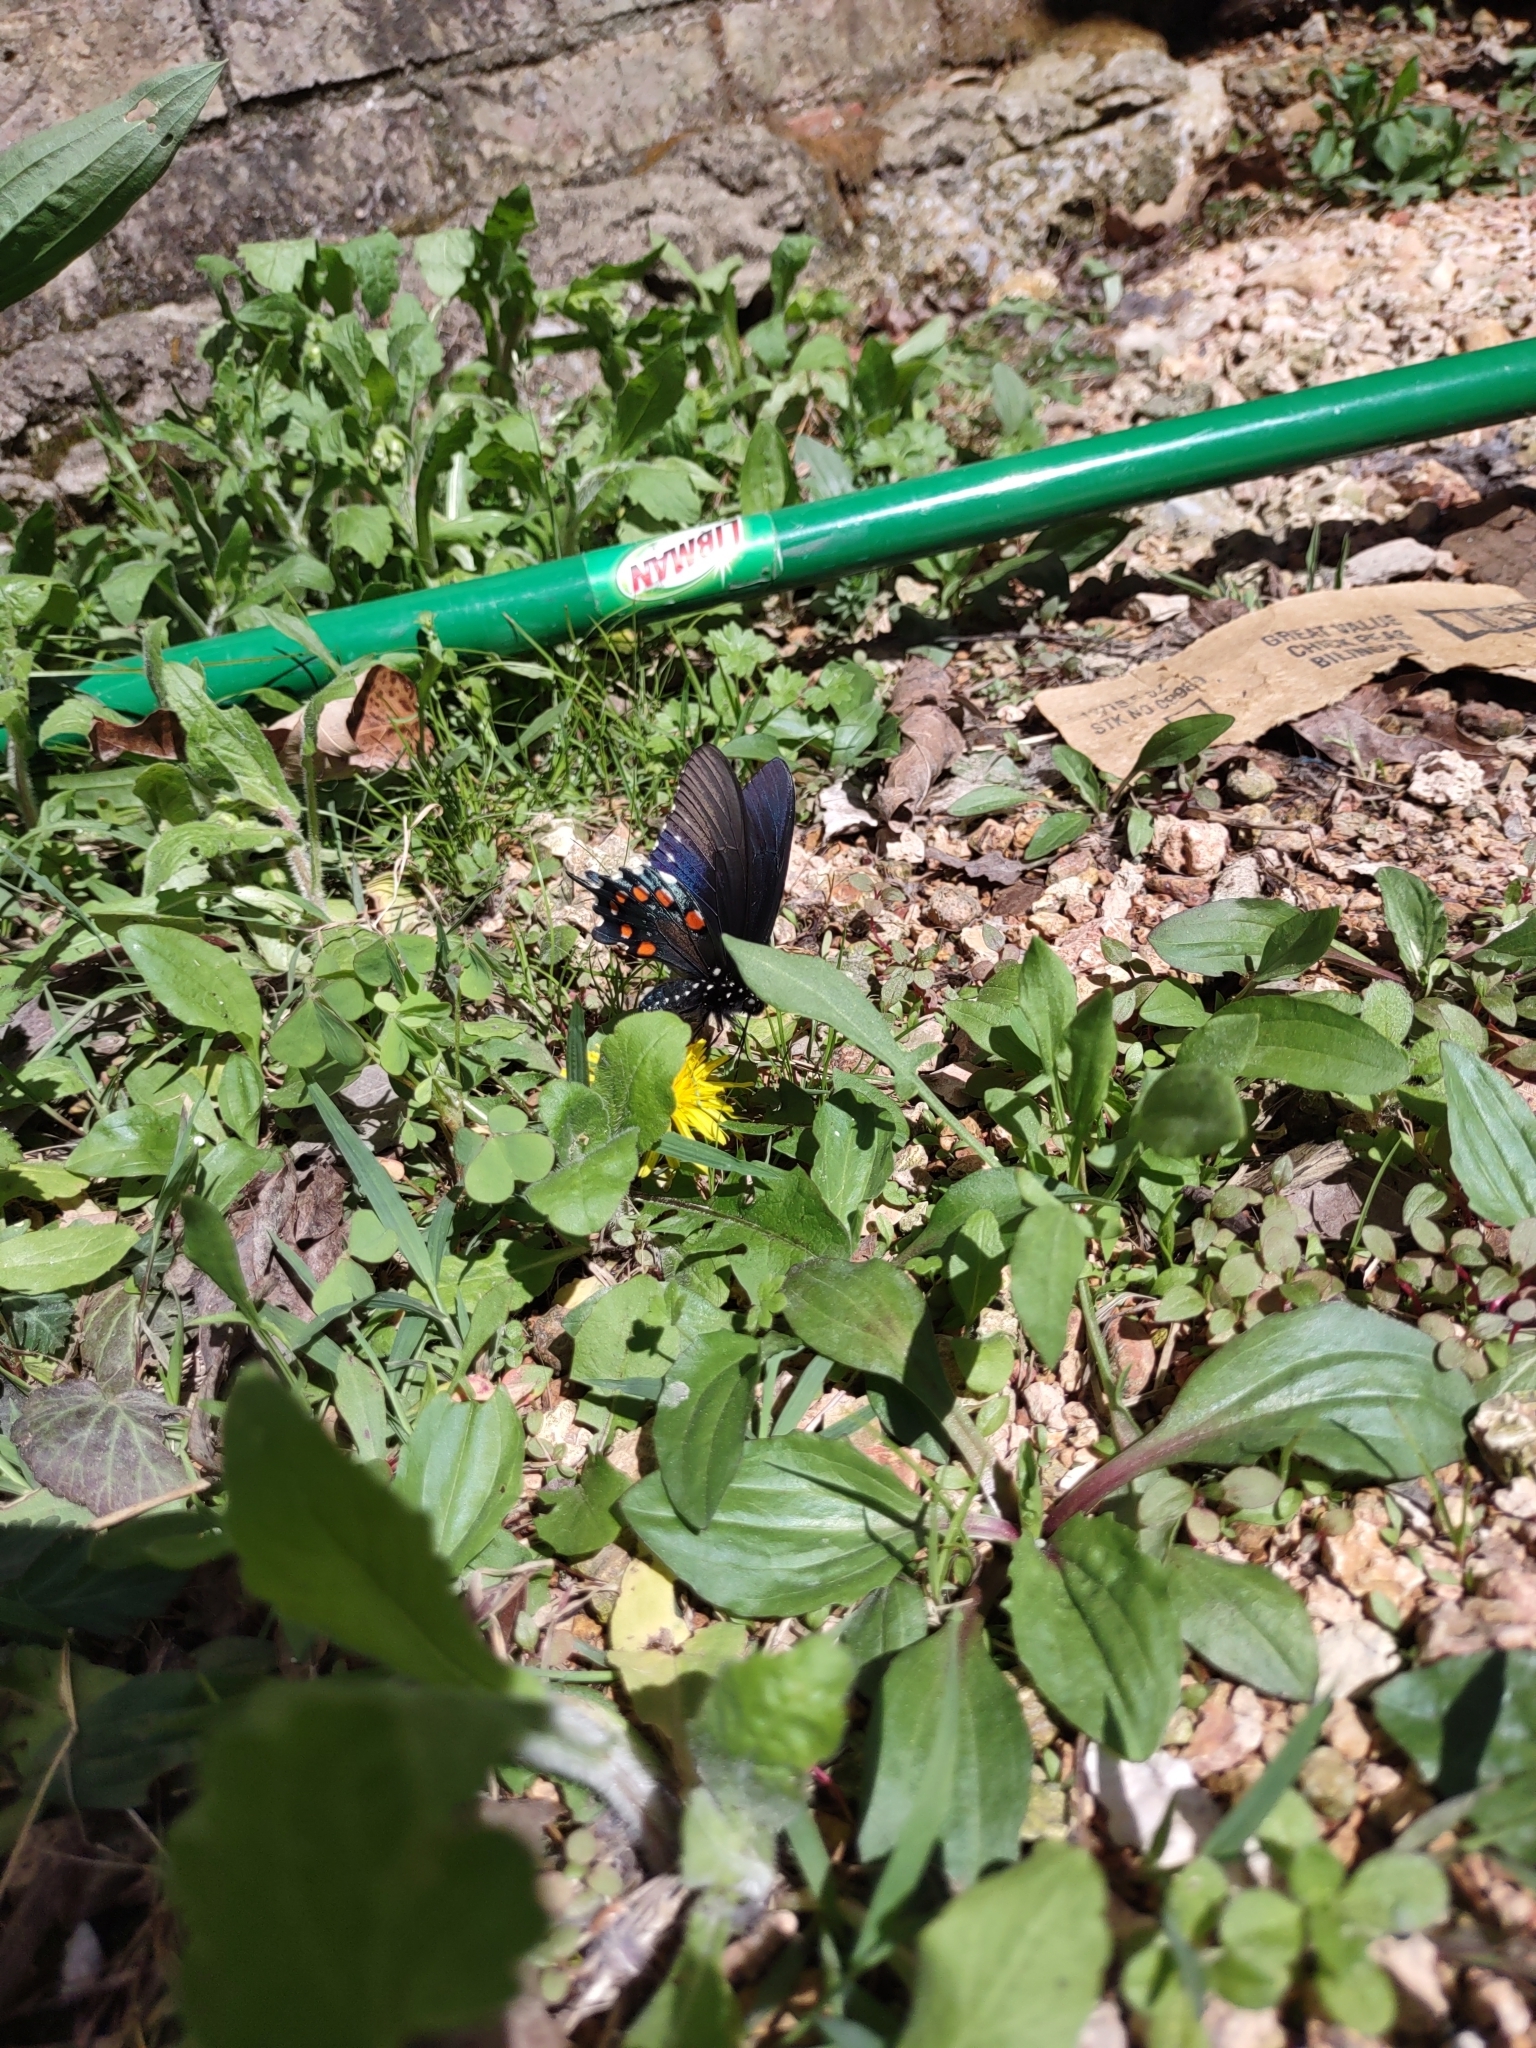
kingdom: Animalia
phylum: Arthropoda
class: Insecta
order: Lepidoptera
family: Papilionidae
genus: Battus
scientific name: Battus philenor
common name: Pipevine swallowtail
